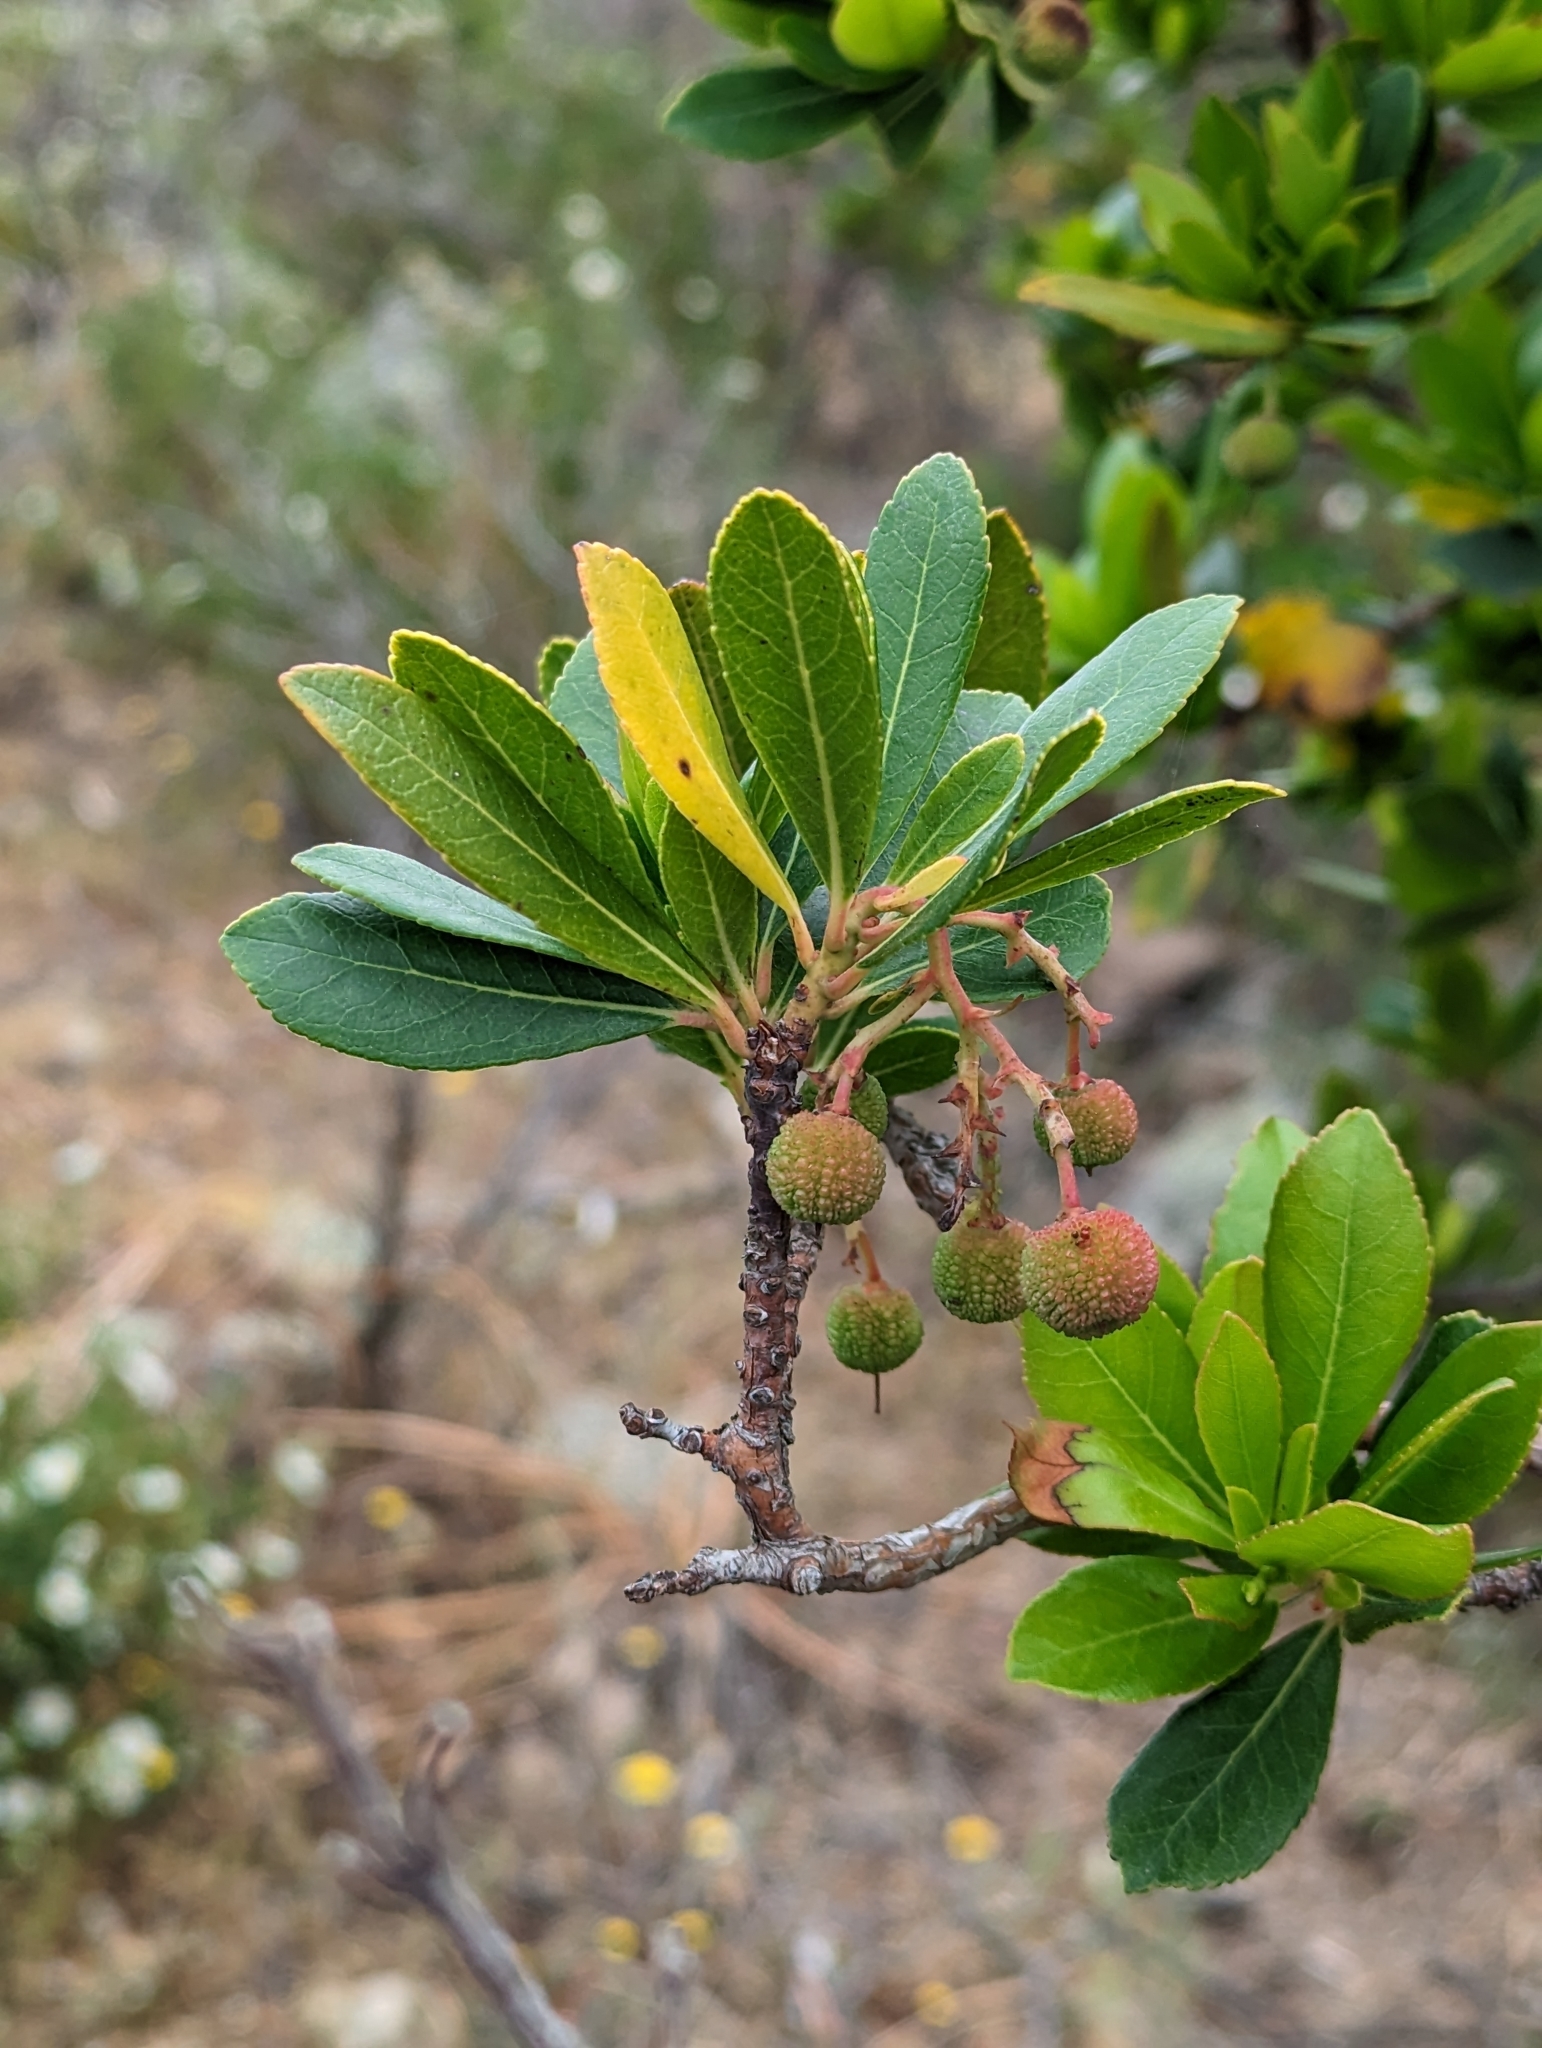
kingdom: Plantae
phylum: Tracheophyta
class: Magnoliopsida
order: Ericales
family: Ericaceae
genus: Arbutus
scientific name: Arbutus unedo
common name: Strawberry-tree
